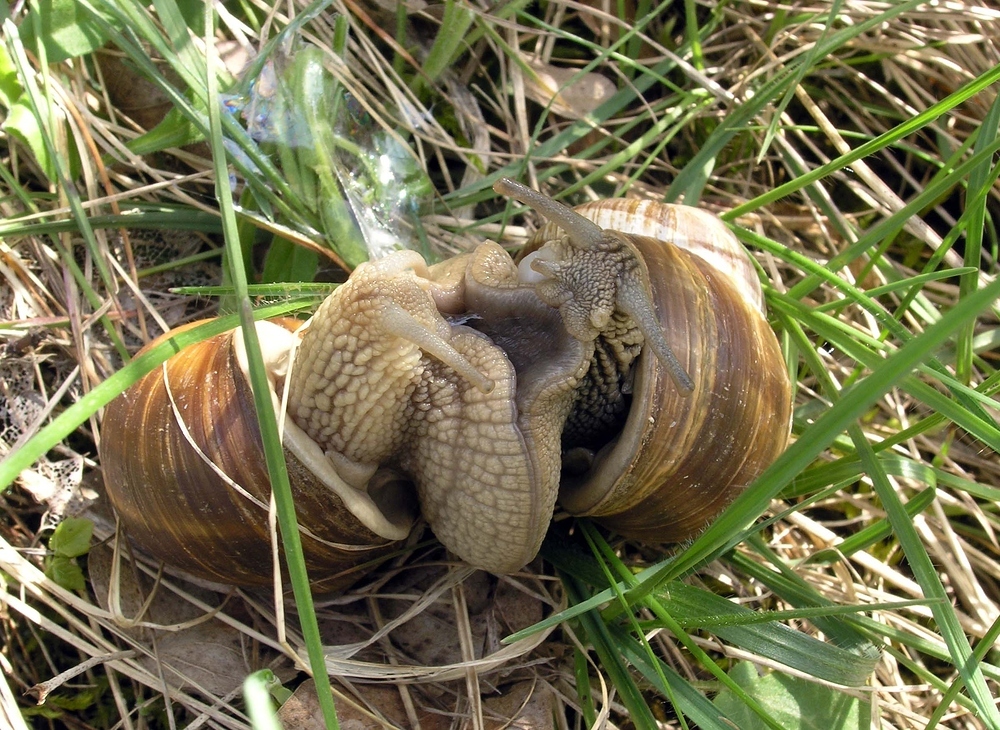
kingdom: Animalia
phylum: Mollusca
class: Gastropoda
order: Stylommatophora
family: Helicidae
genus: Helix
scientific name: Helix pomatia
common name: Roman snail
